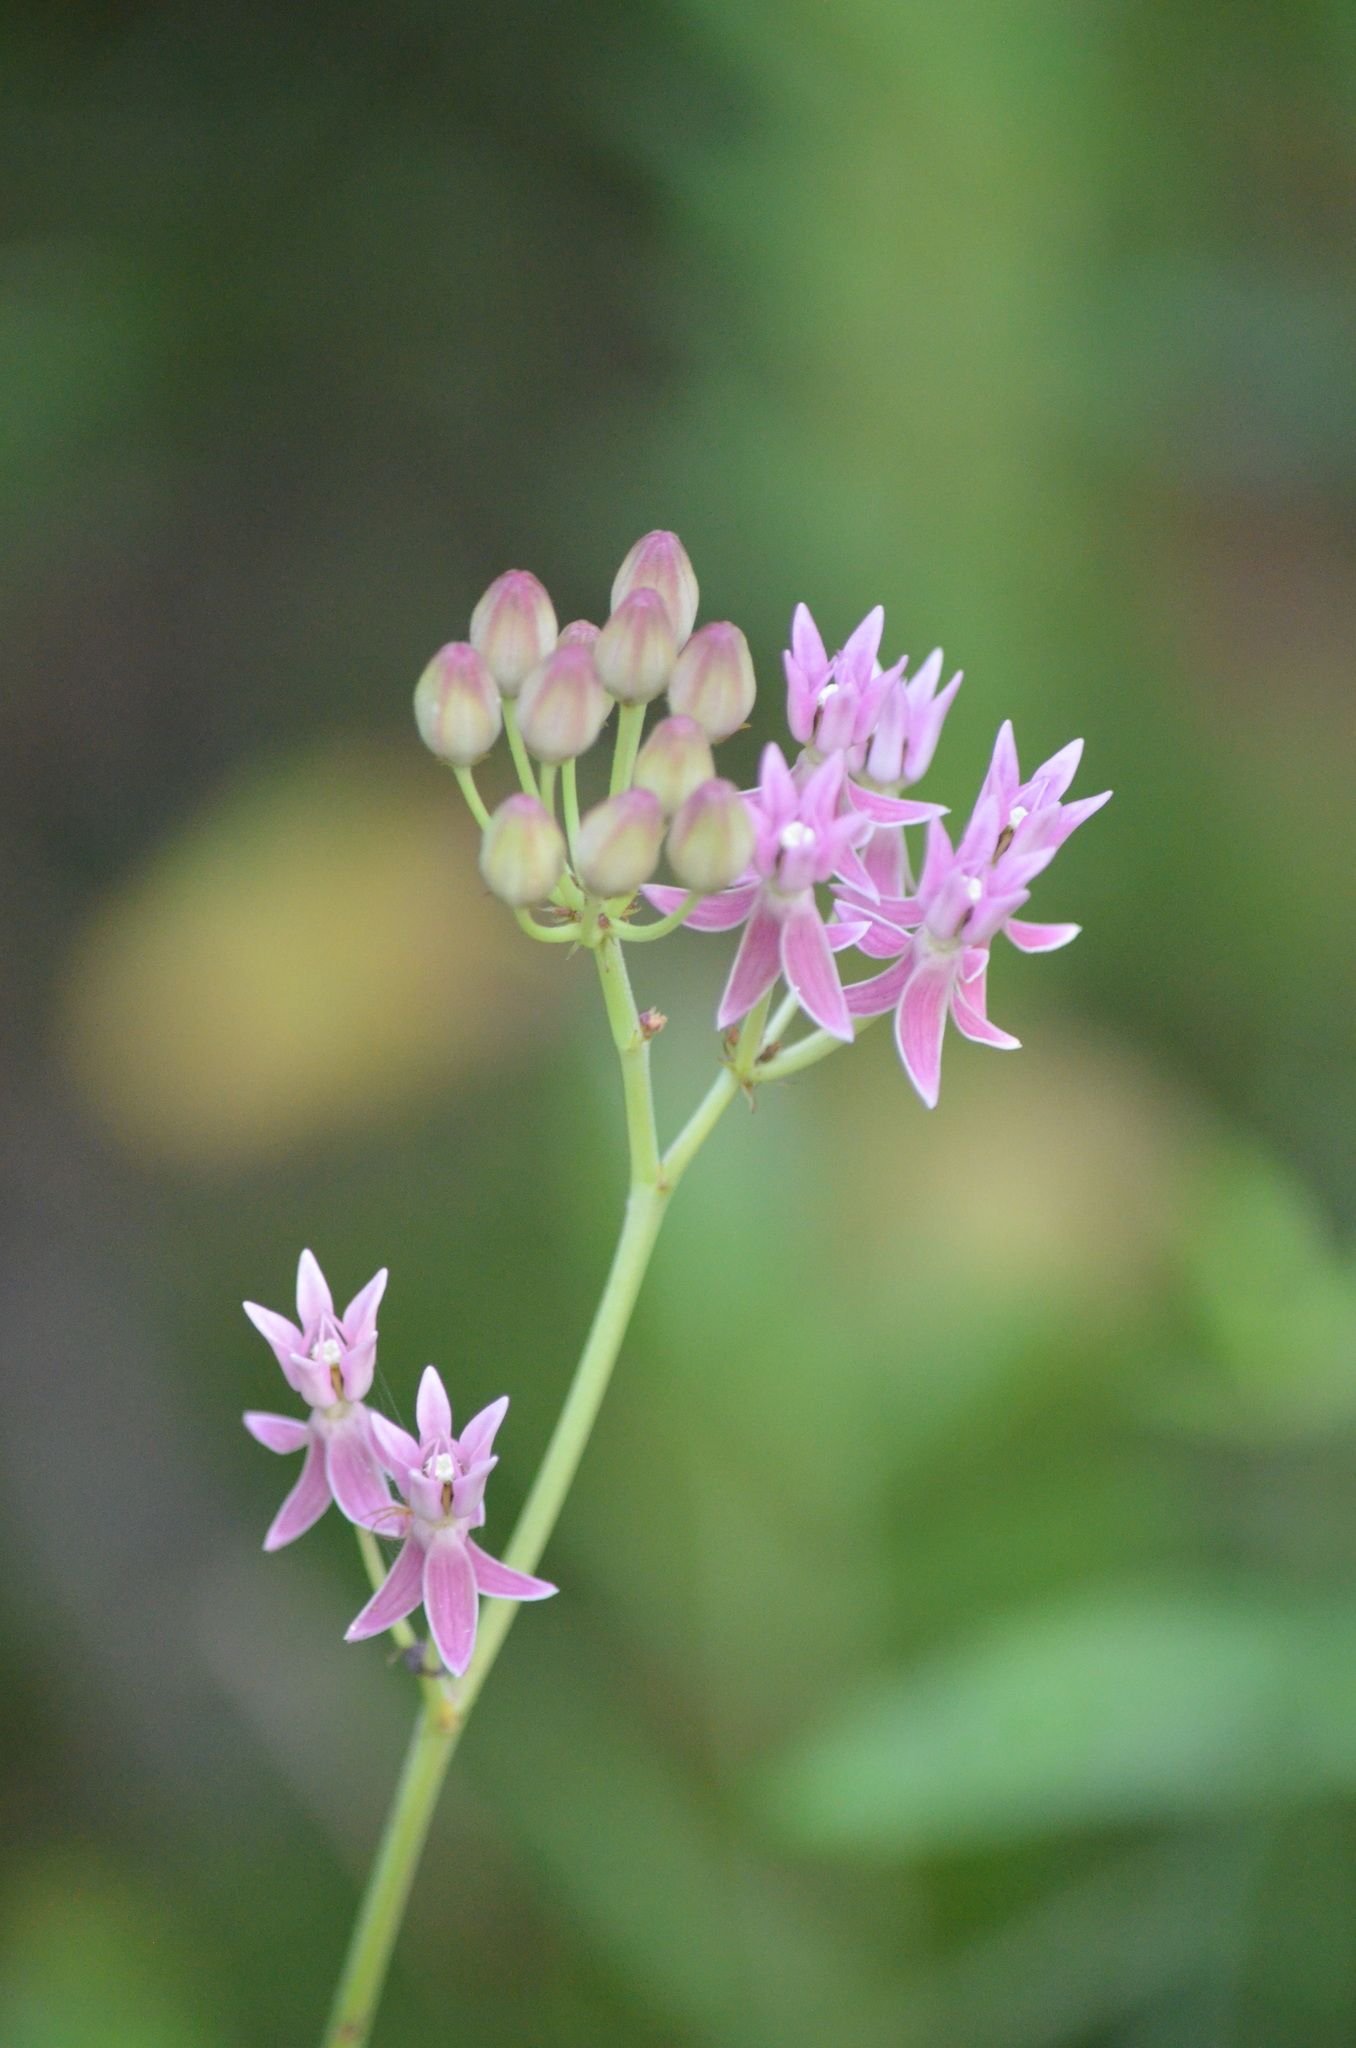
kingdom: Plantae
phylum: Tracheophyta
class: Magnoliopsida
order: Gentianales
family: Apocynaceae
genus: Asclepias
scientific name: Asclepias rubra
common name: Red milkweed
